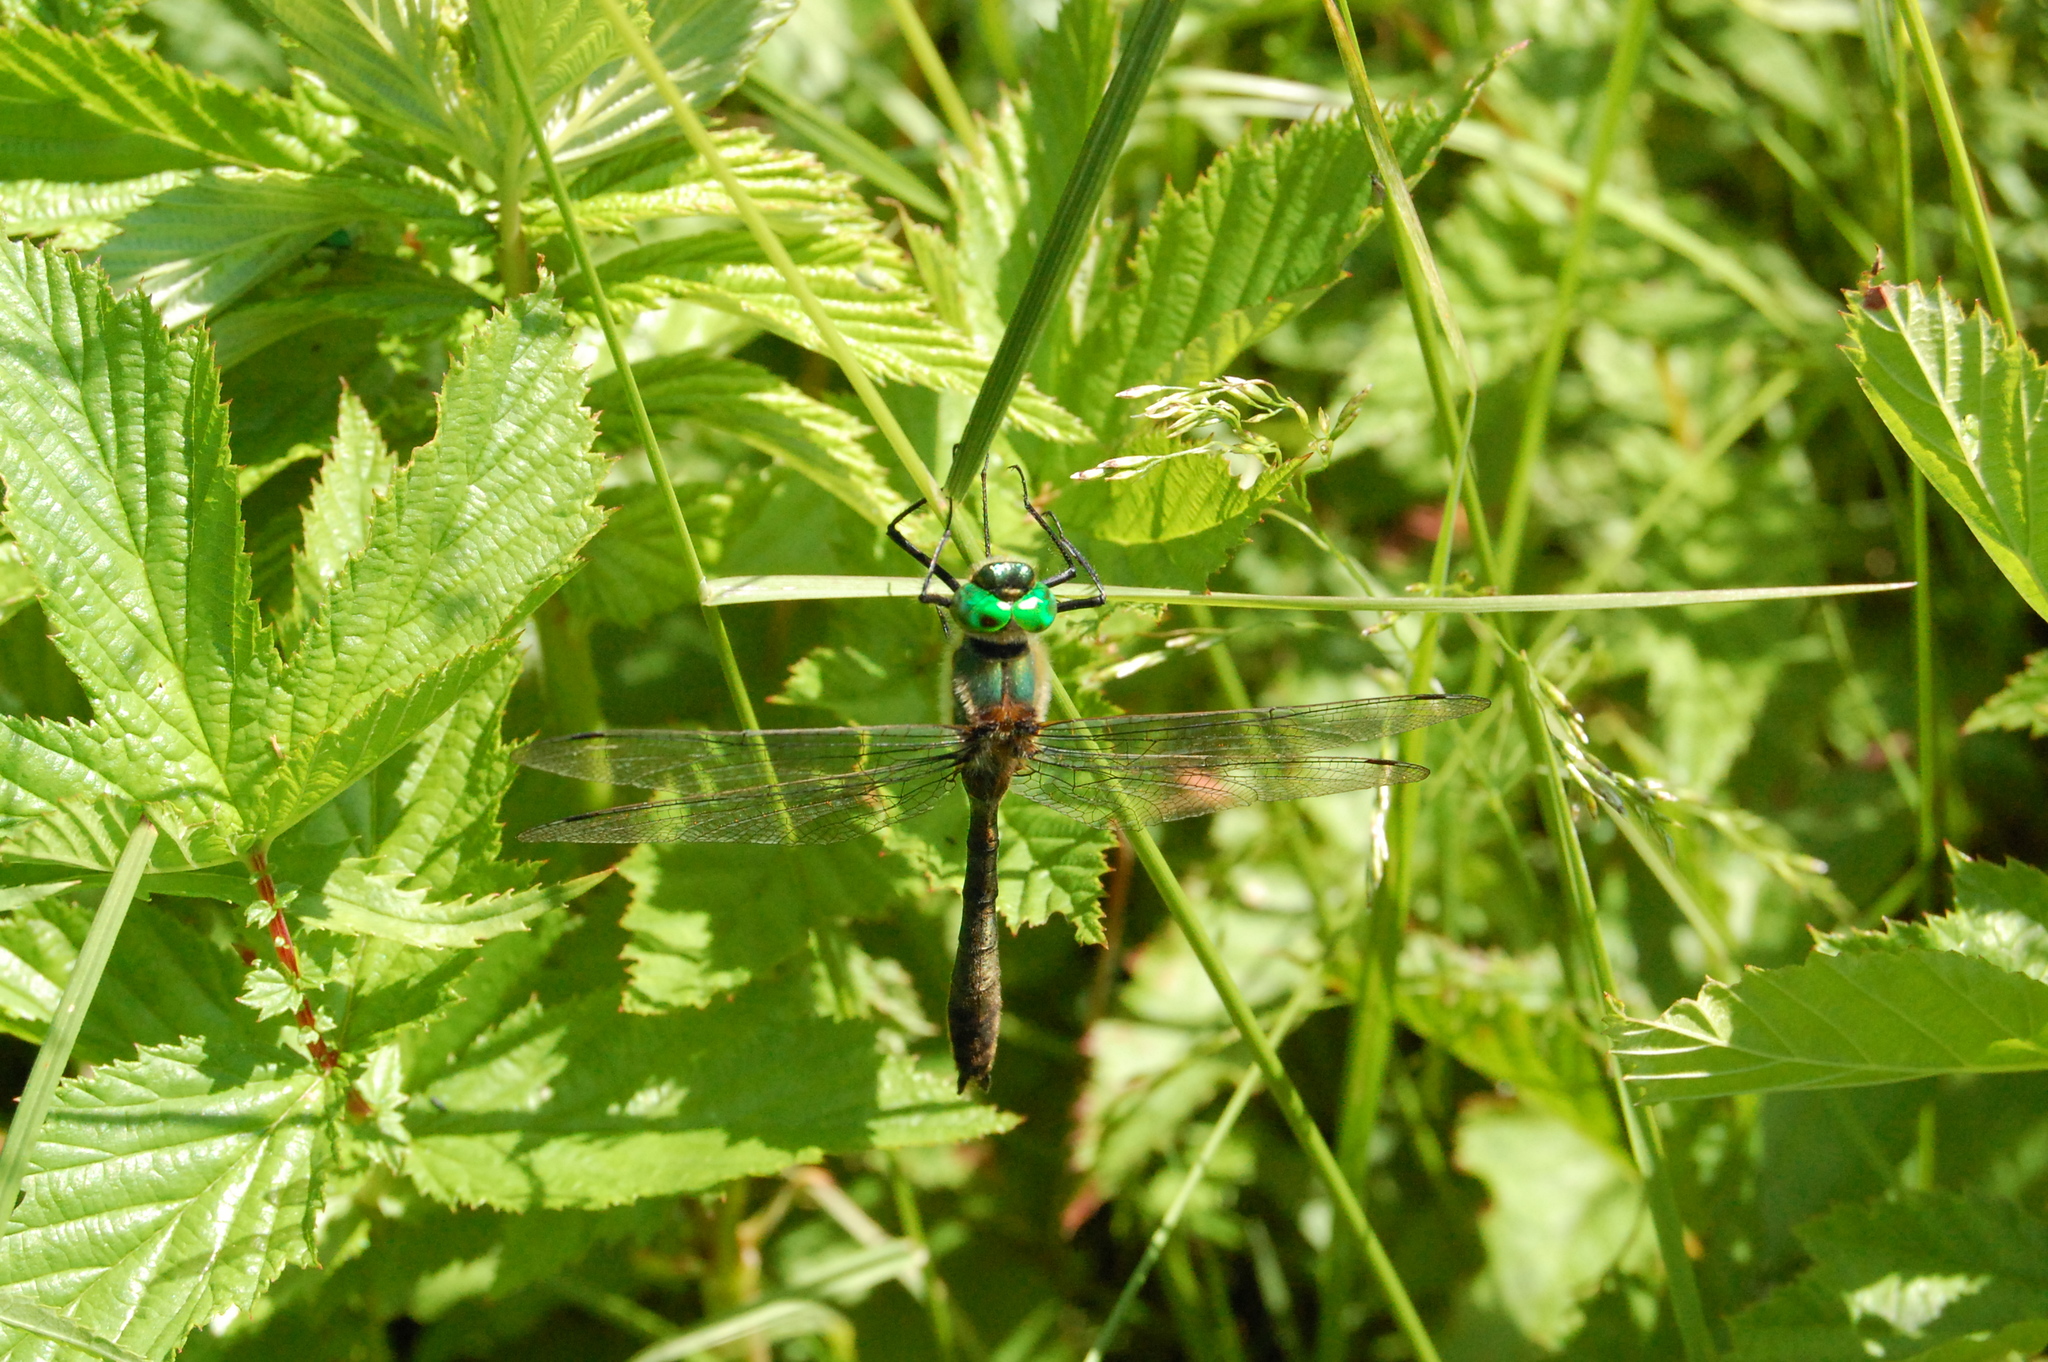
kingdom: Animalia
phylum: Arthropoda
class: Insecta
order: Odonata
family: Corduliidae
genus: Cordulia
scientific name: Cordulia aenea
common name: Downy emerald
